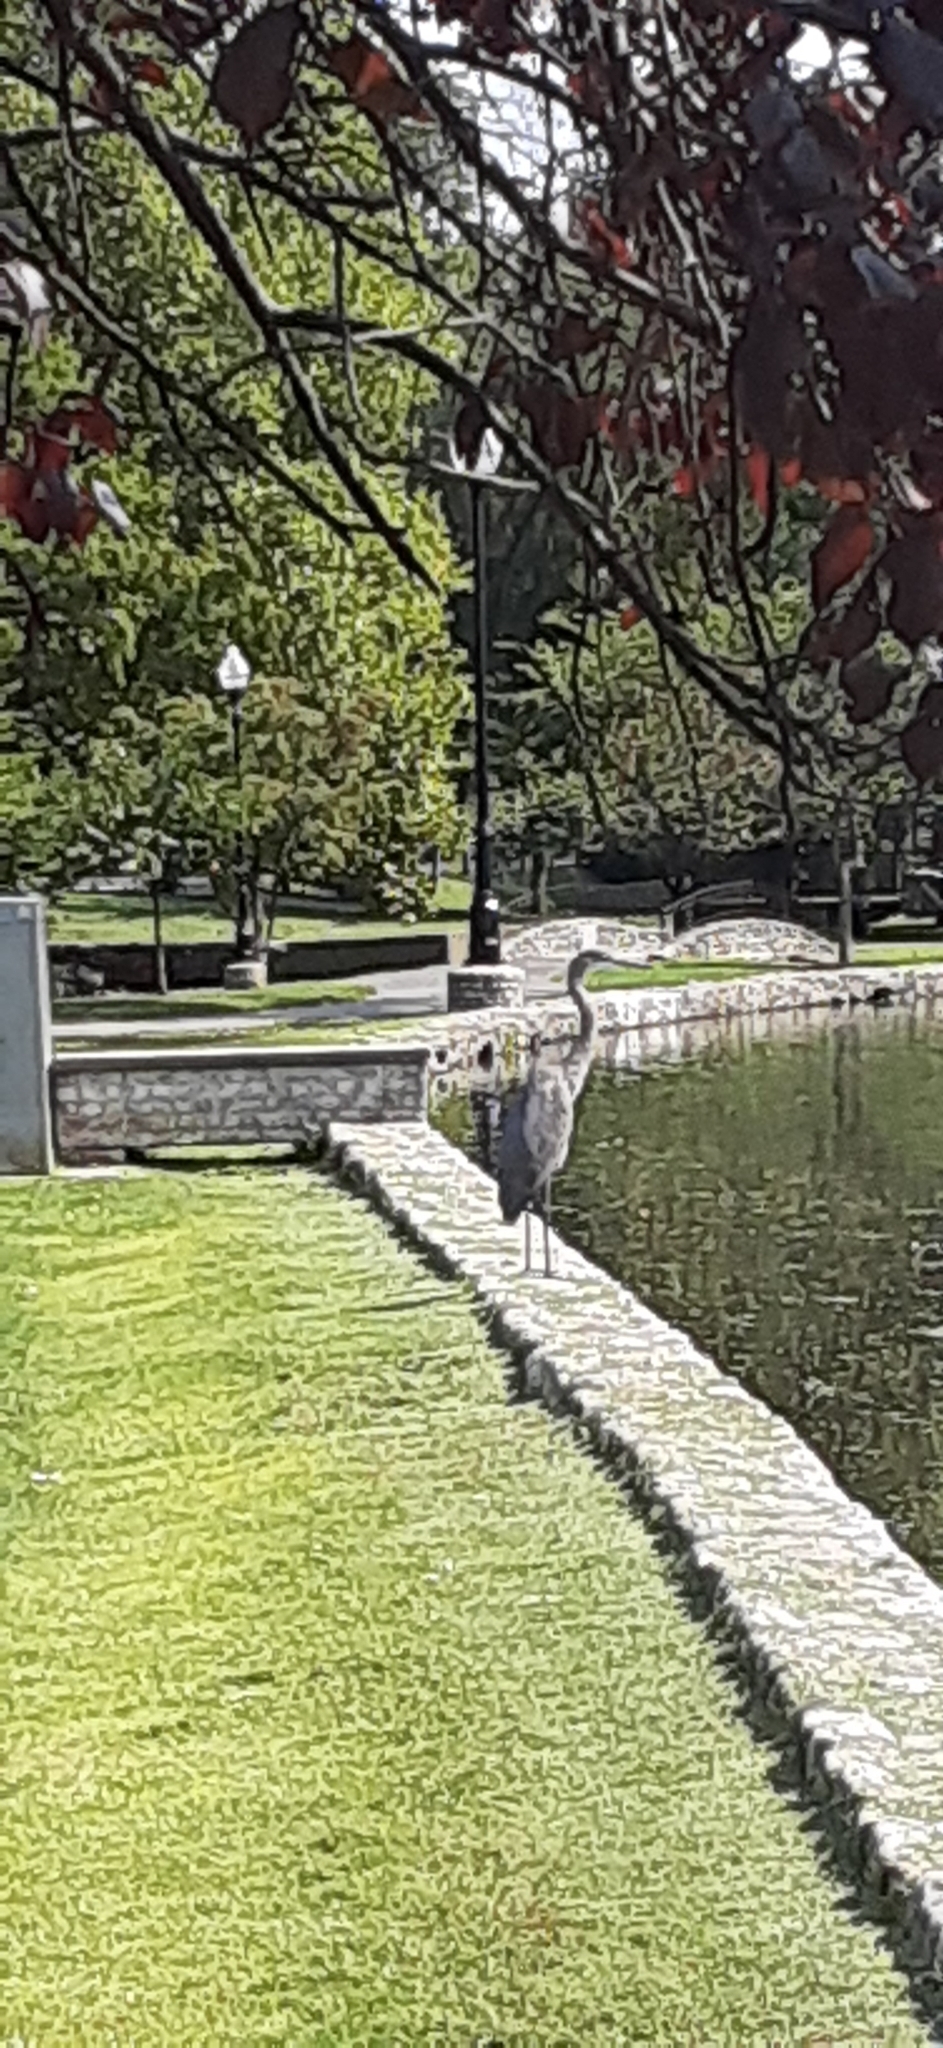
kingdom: Animalia
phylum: Chordata
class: Aves
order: Pelecaniformes
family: Ardeidae
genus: Ardea
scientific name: Ardea herodias
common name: Great blue heron
